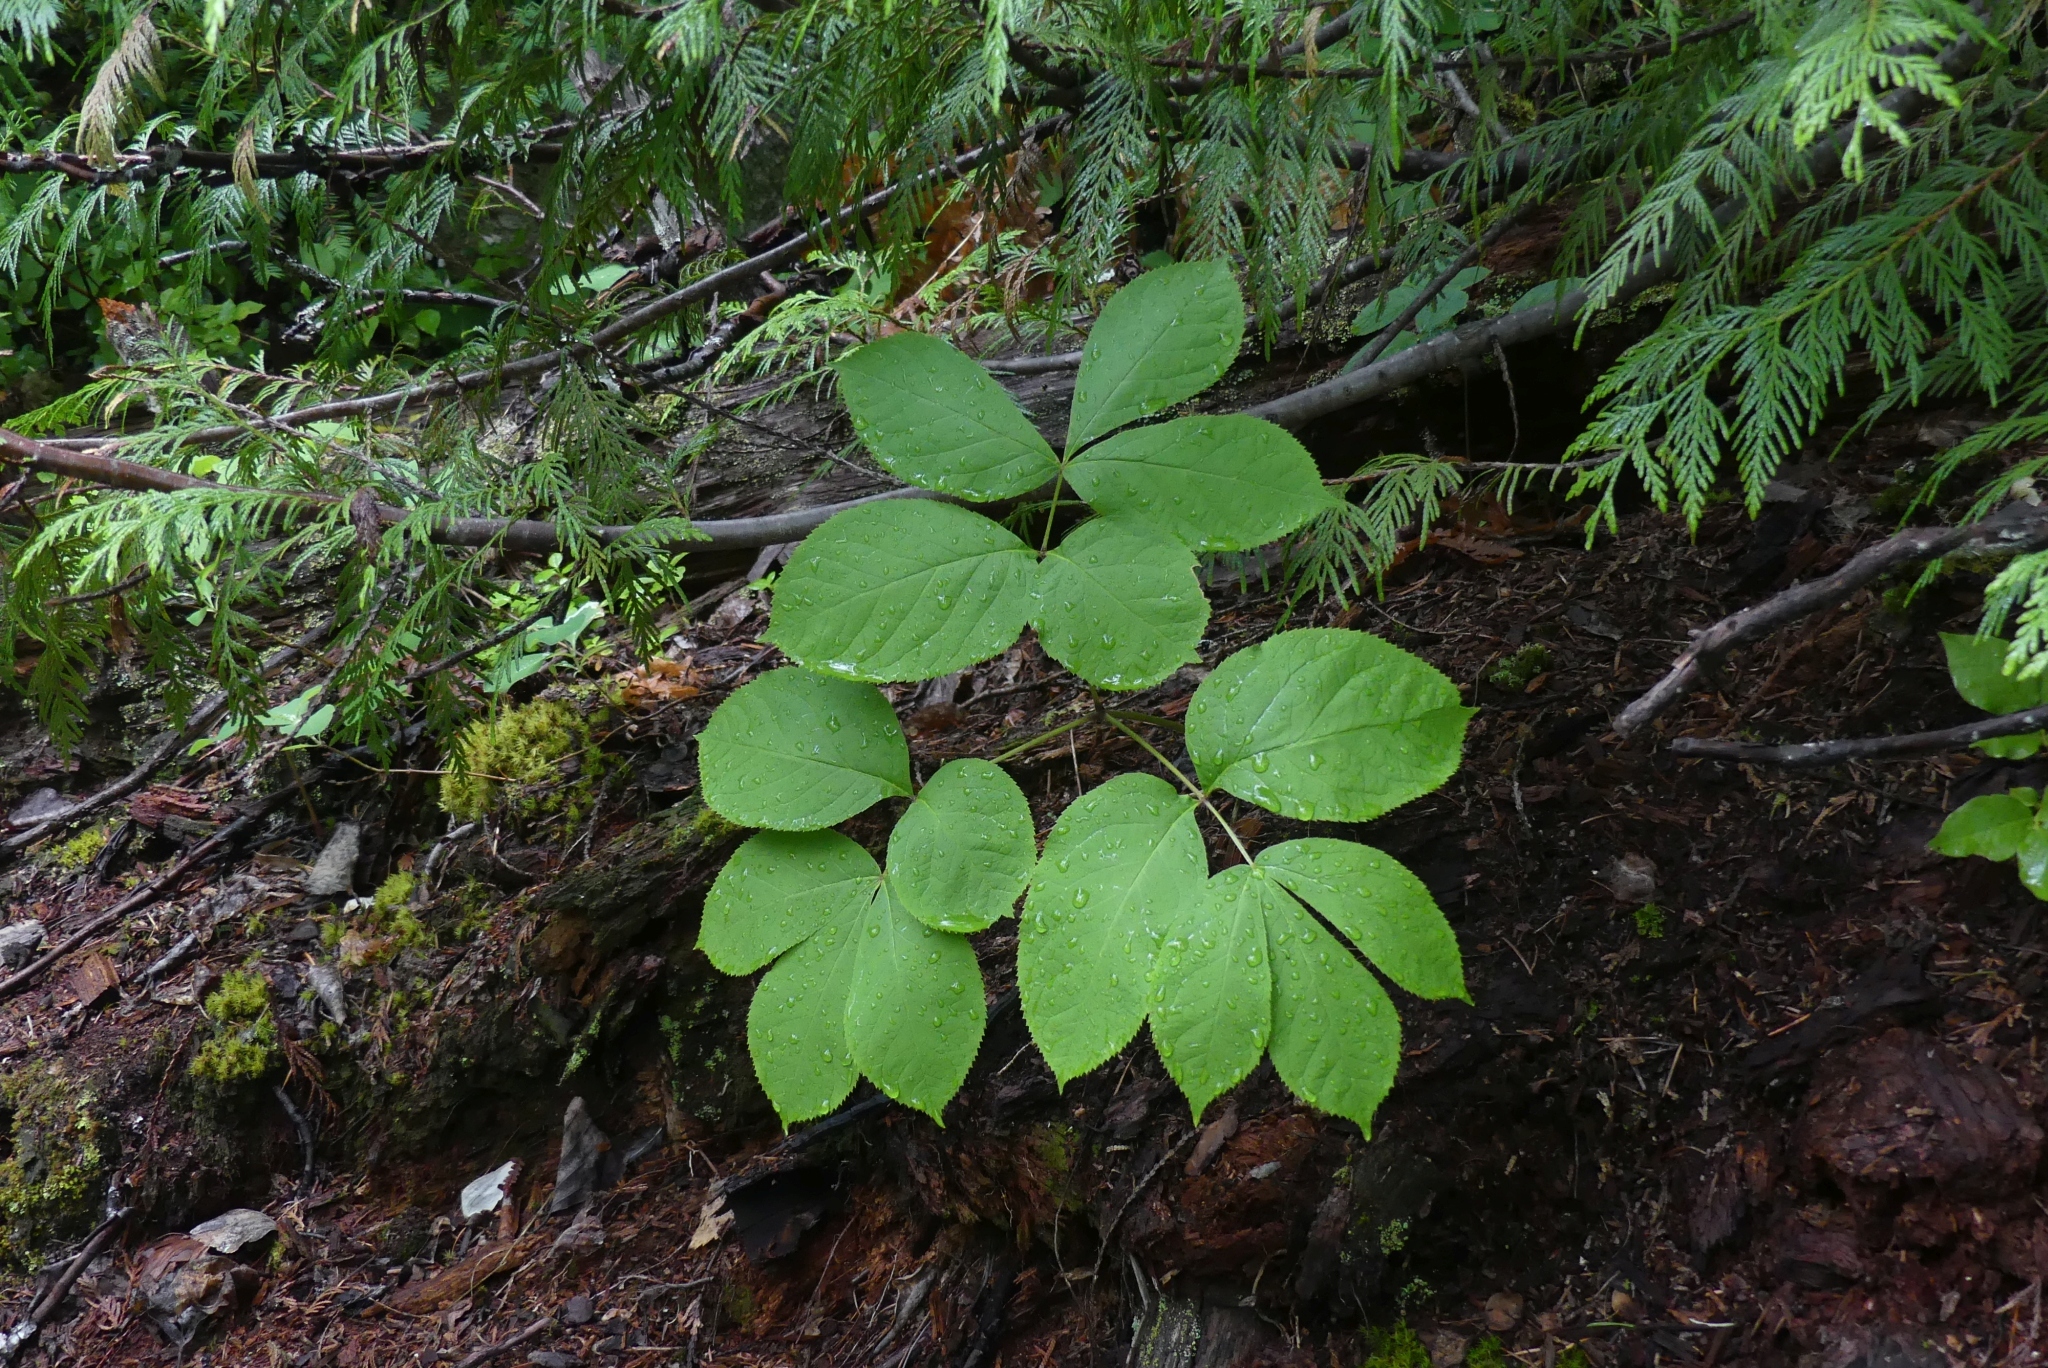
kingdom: Plantae
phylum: Tracheophyta
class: Magnoliopsida
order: Apiales
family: Araliaceae
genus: Aralia
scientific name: Aralia nudicaulis
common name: Wild sarsaparilla
